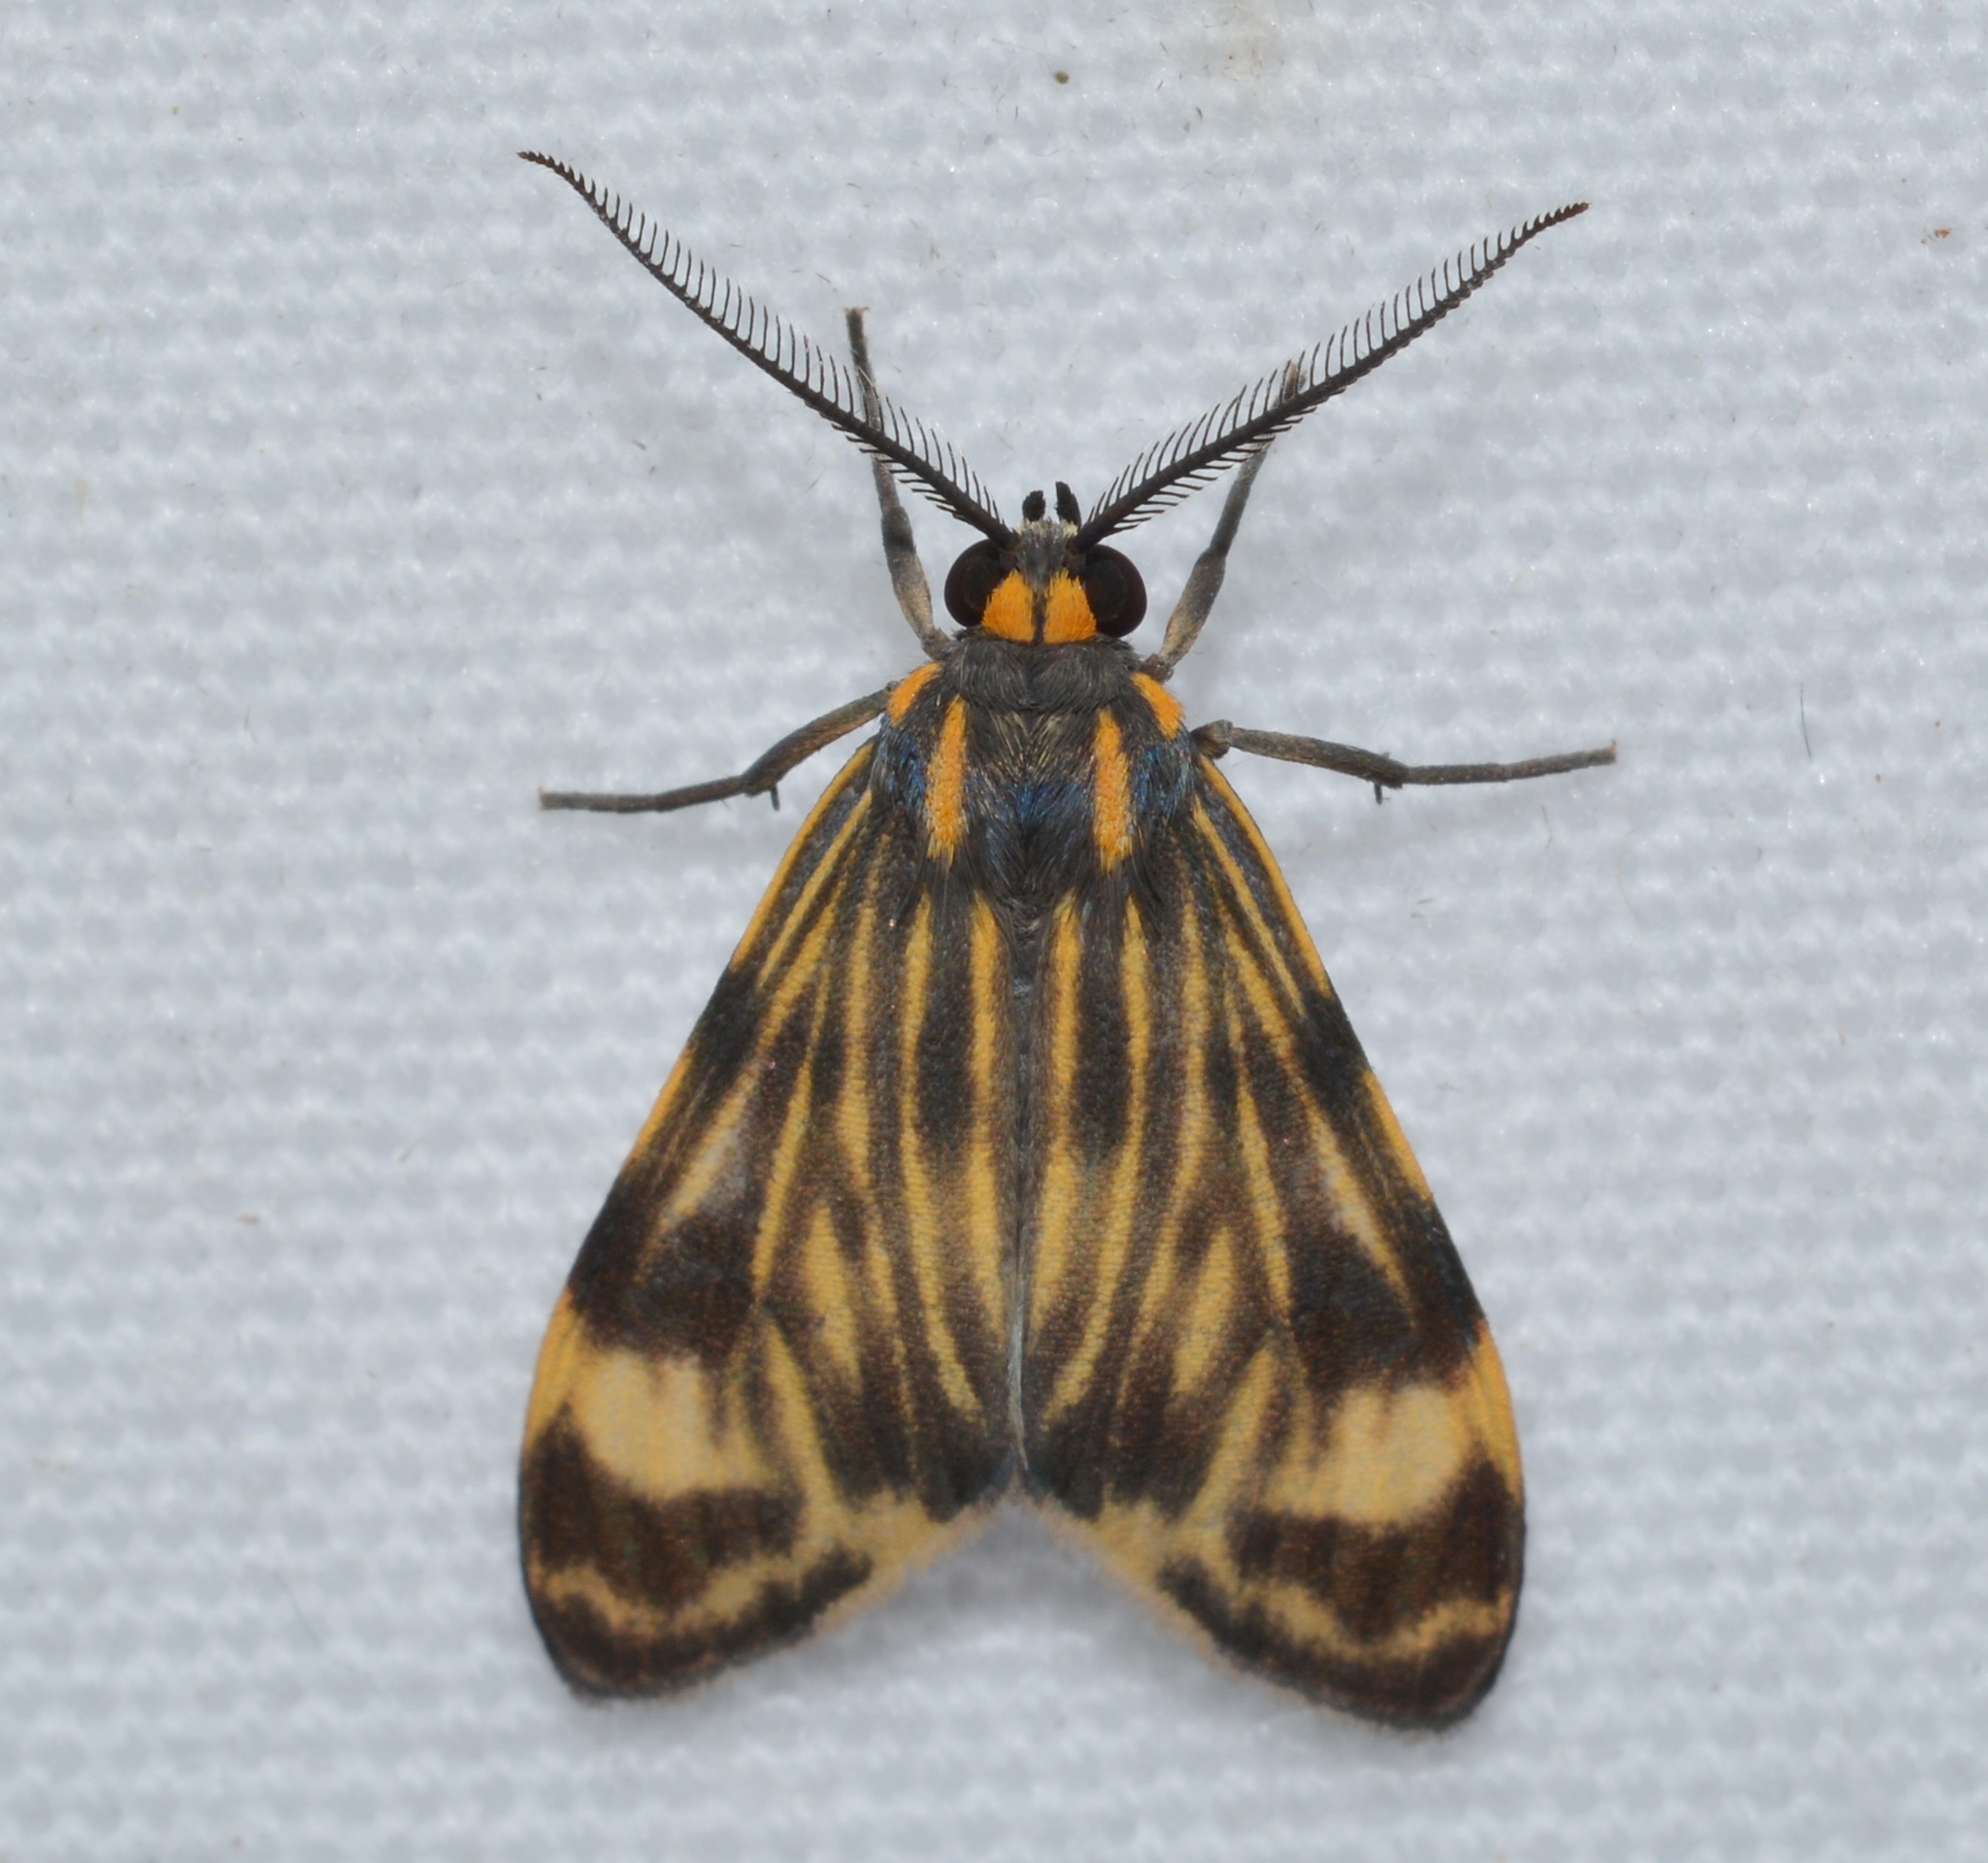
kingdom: Animalia
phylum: Arthropoda
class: Insecta
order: Lepidoptera
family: Erebidae
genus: Eucereon
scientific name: Eucereon phaeoproctum
